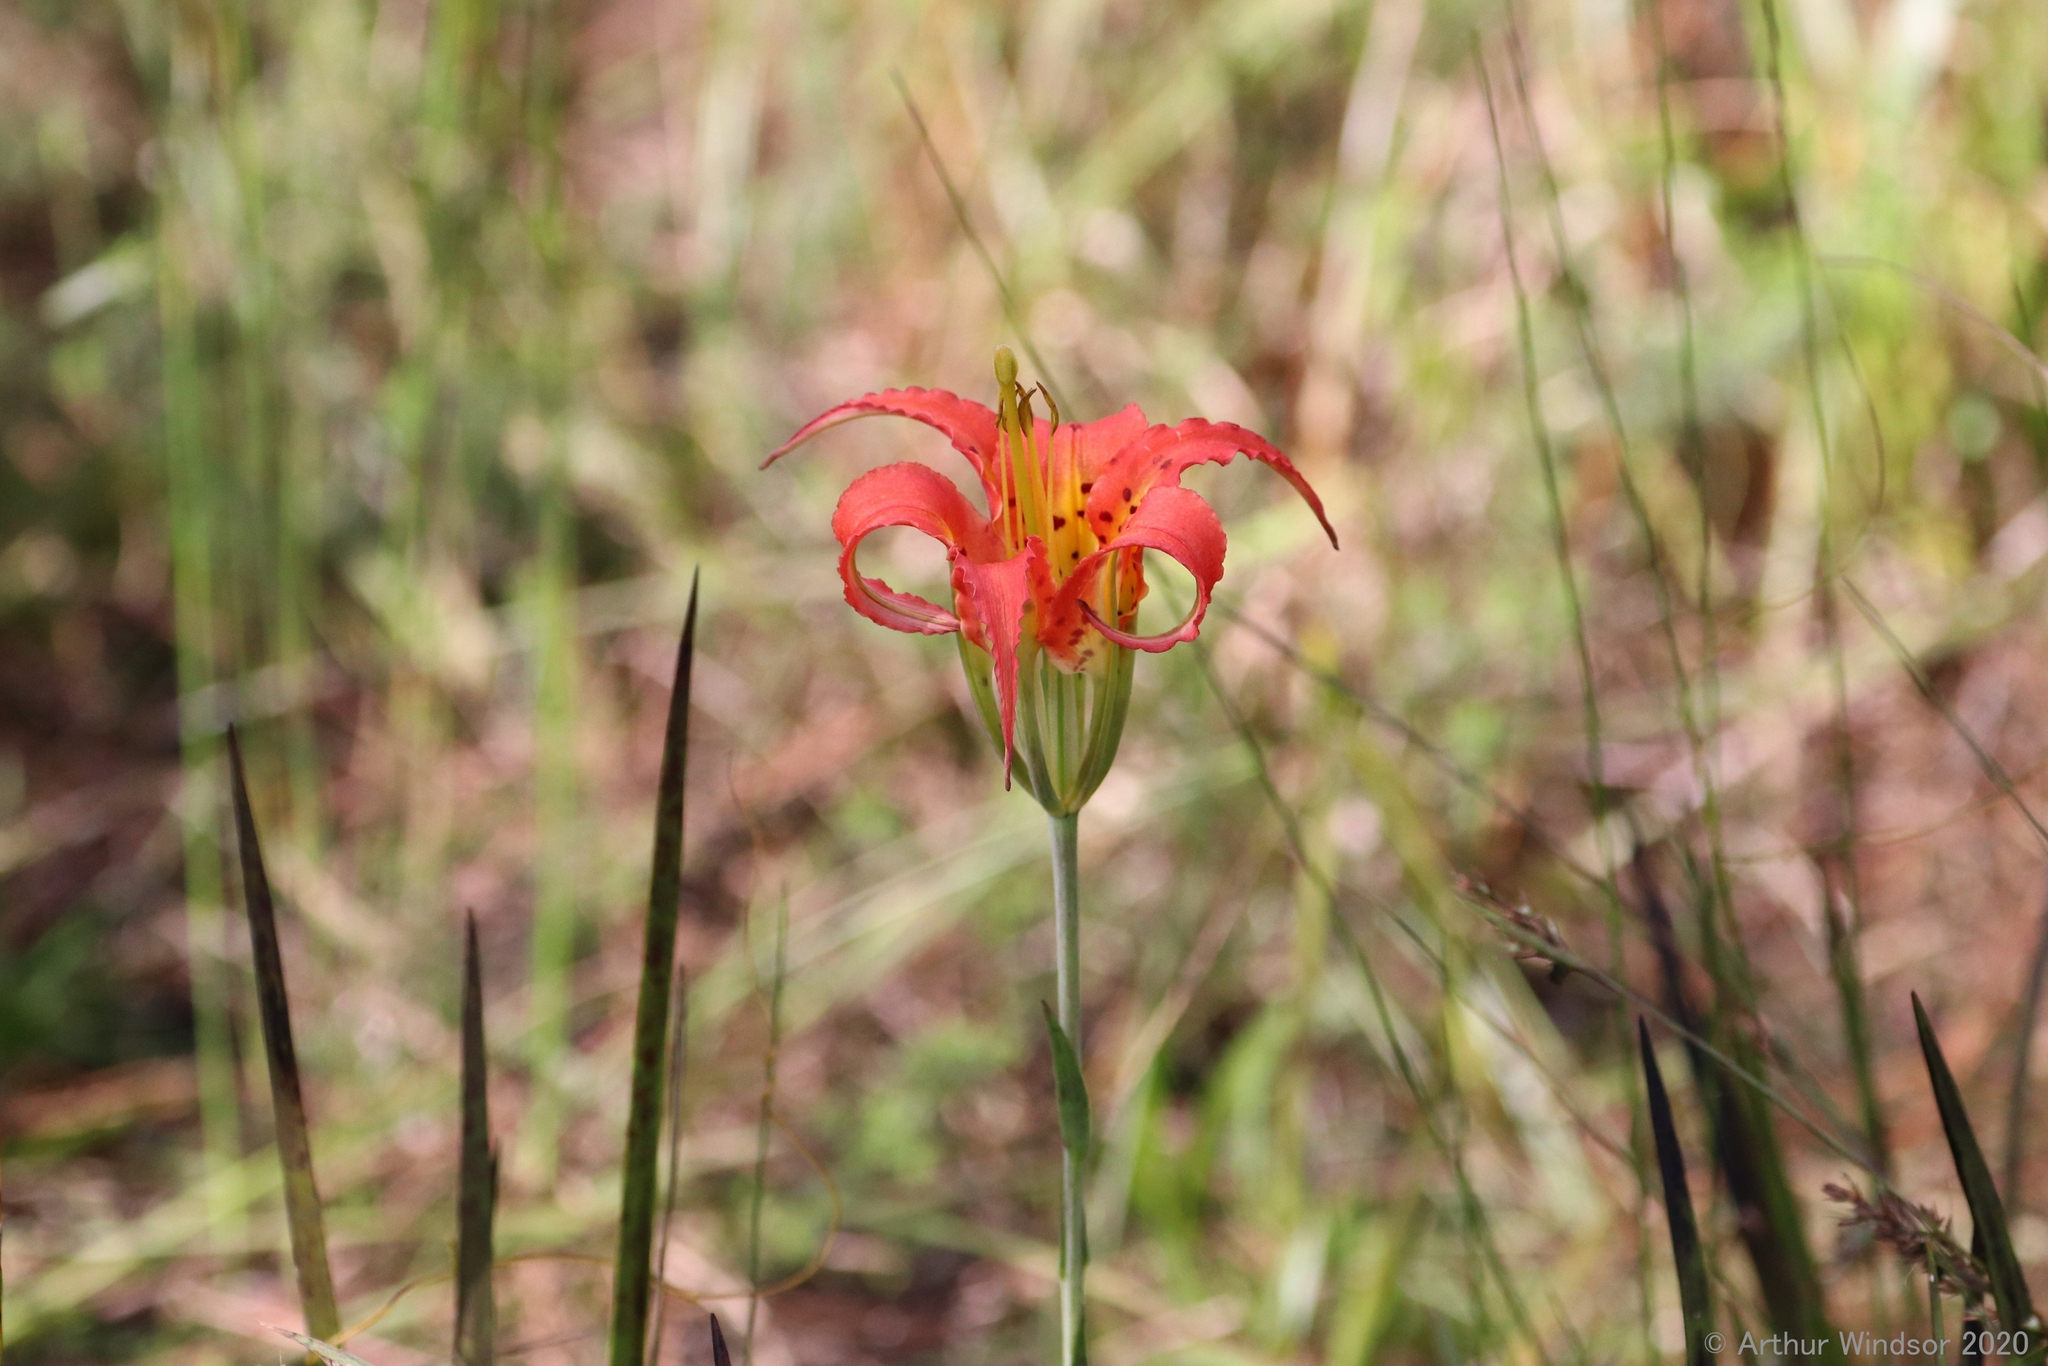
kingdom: Plantae
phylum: Tracheophyta
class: Liliopsida
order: Liliales
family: Liliaceae
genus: Lilium
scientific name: Lilium catesbaei
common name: Catesby's lily
